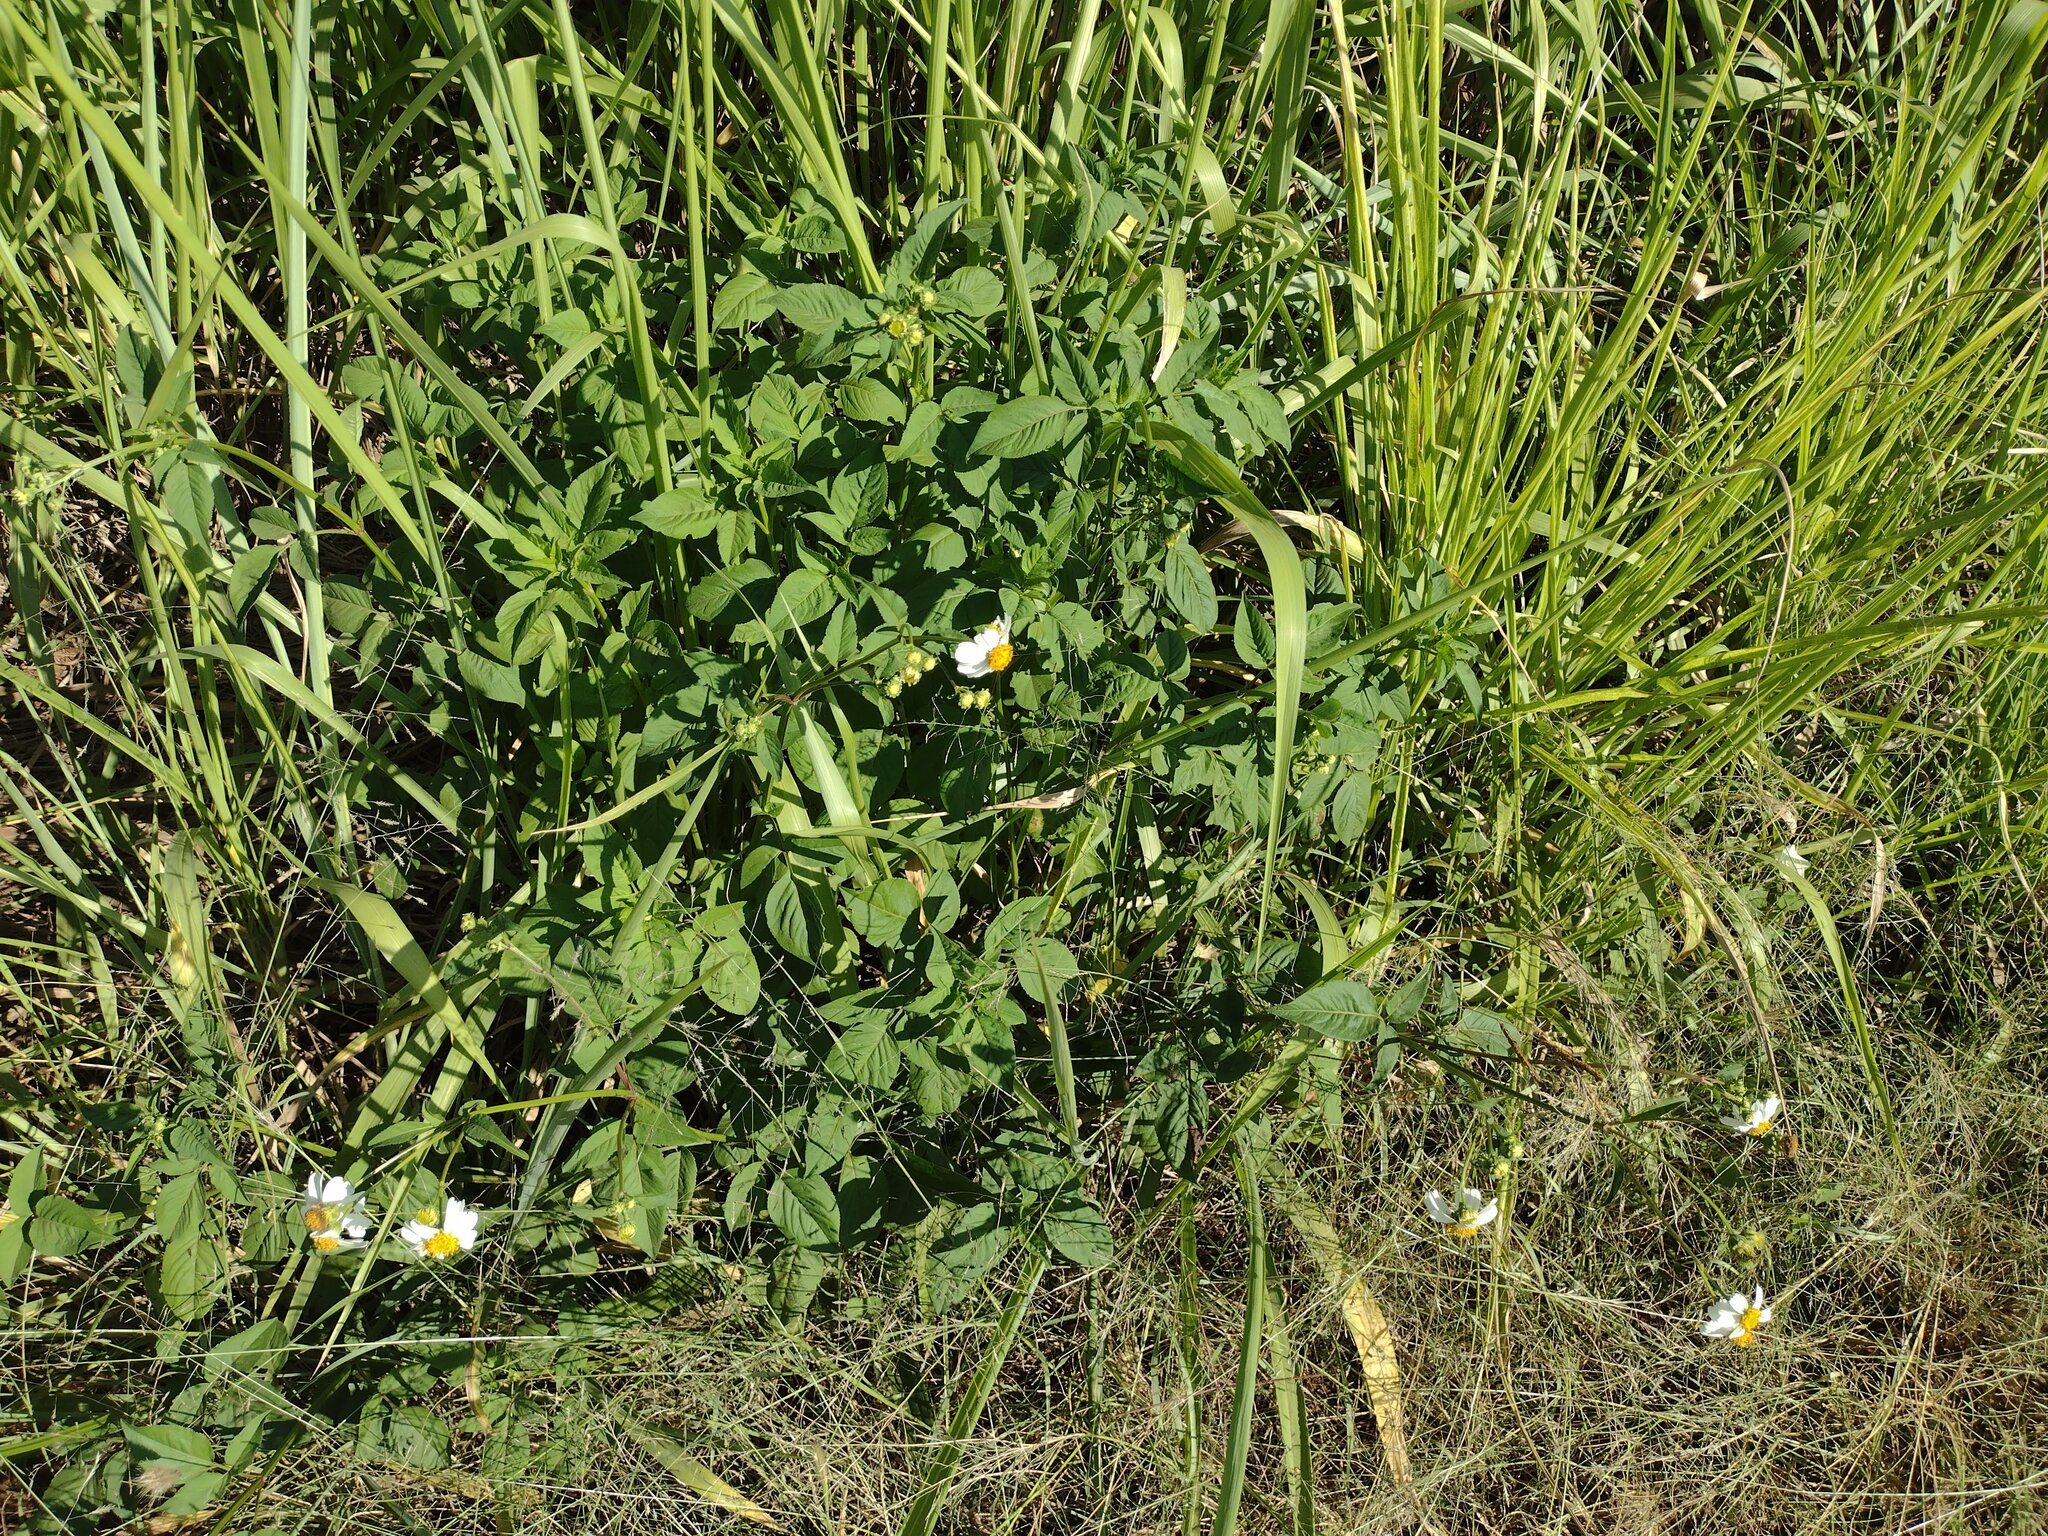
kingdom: Plantae
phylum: Tracheophyta
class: Magnoliopsida
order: Asterales
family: Asteraceae
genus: Bidens
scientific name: Bidens alba
